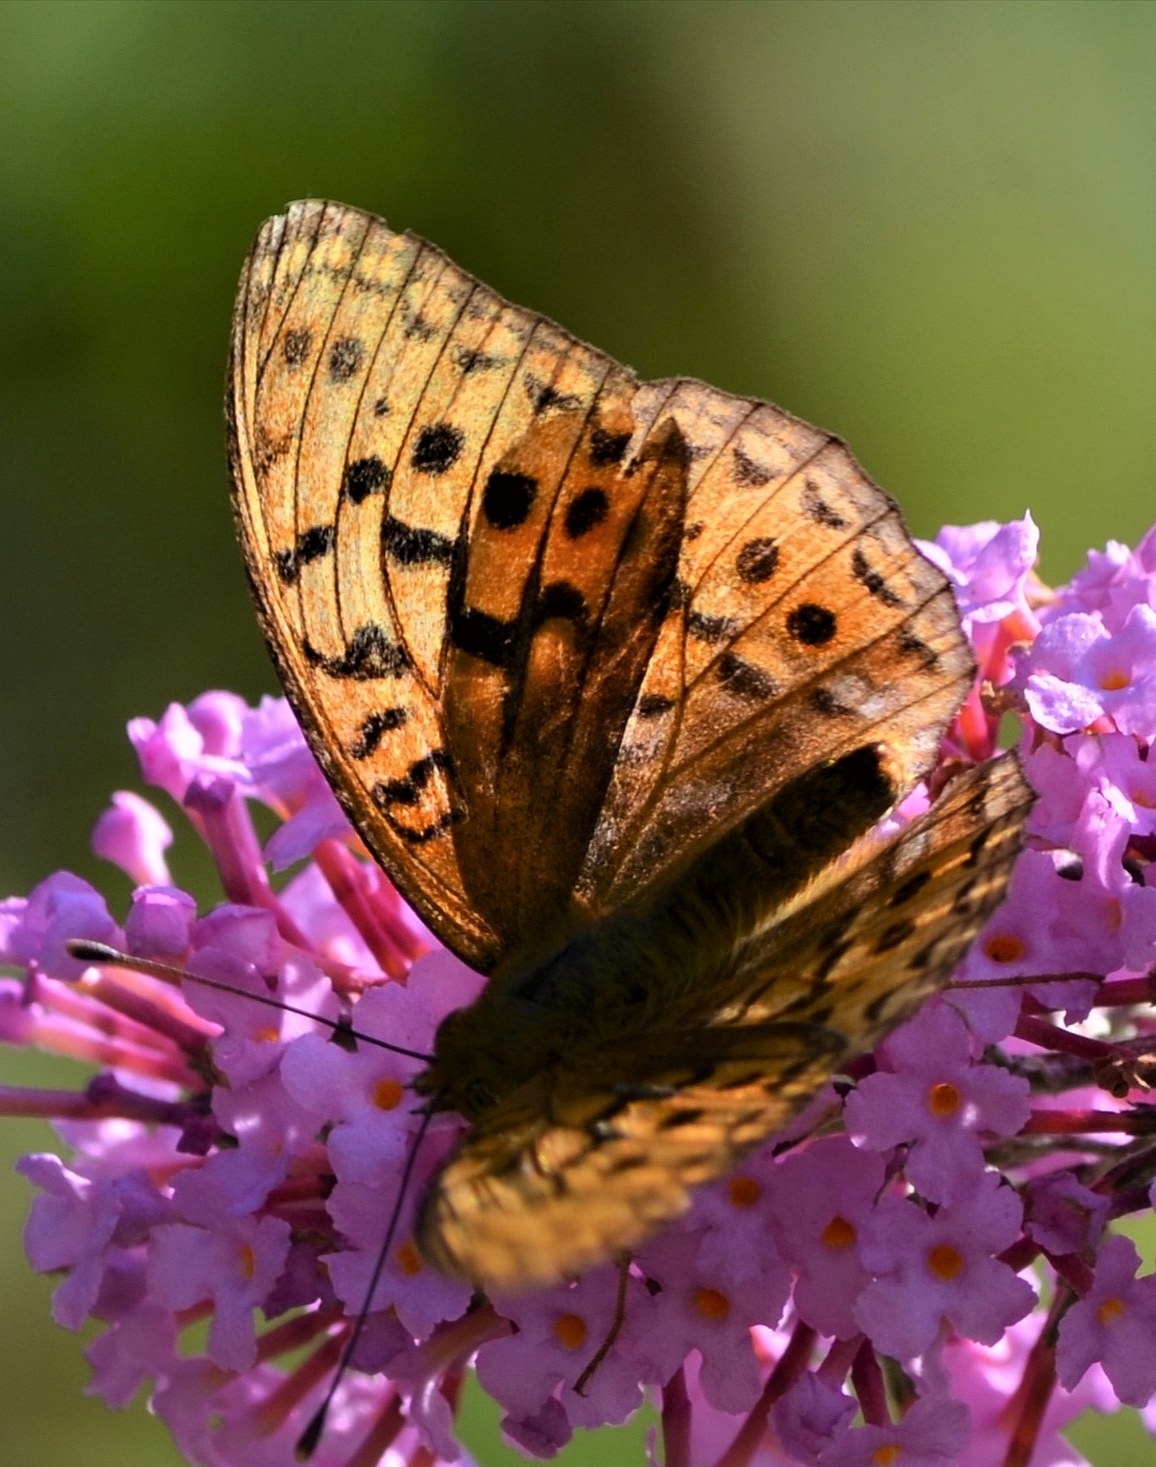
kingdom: Animalia
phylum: Arthropoda
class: Insecta
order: Lepidoptera
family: Nymphalidae
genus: Fabriciana
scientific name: Fabriciana adippe
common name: High brown fritillary
